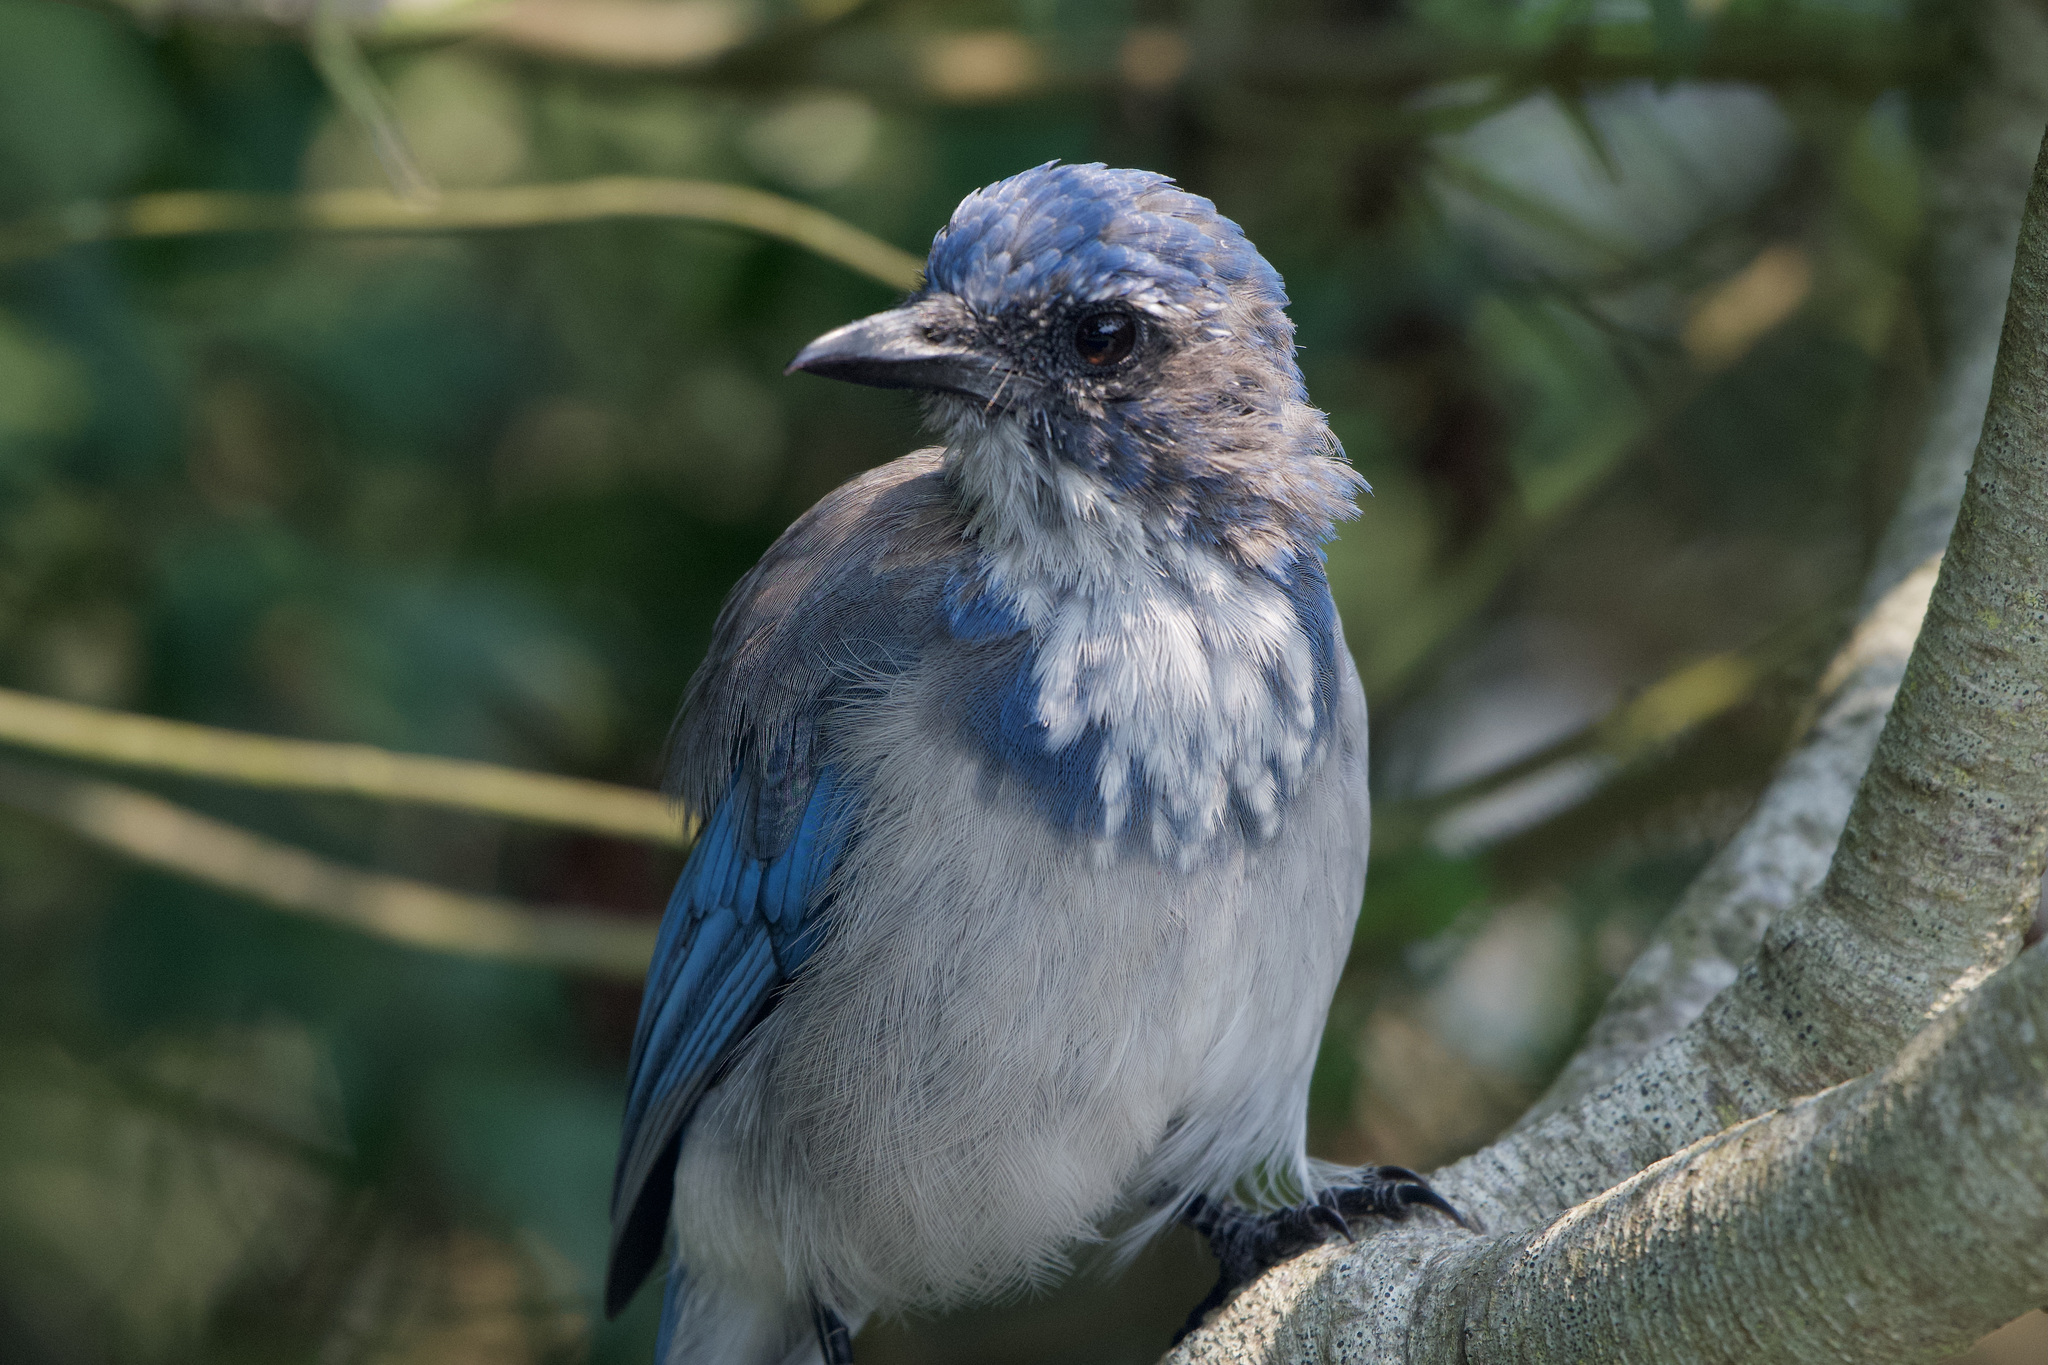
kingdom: Animalia
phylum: Chordata
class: Aves
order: Passeriformes
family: Corvidae
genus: Aphelocoma
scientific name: Aphelocoma californica
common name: California scrub-jay
